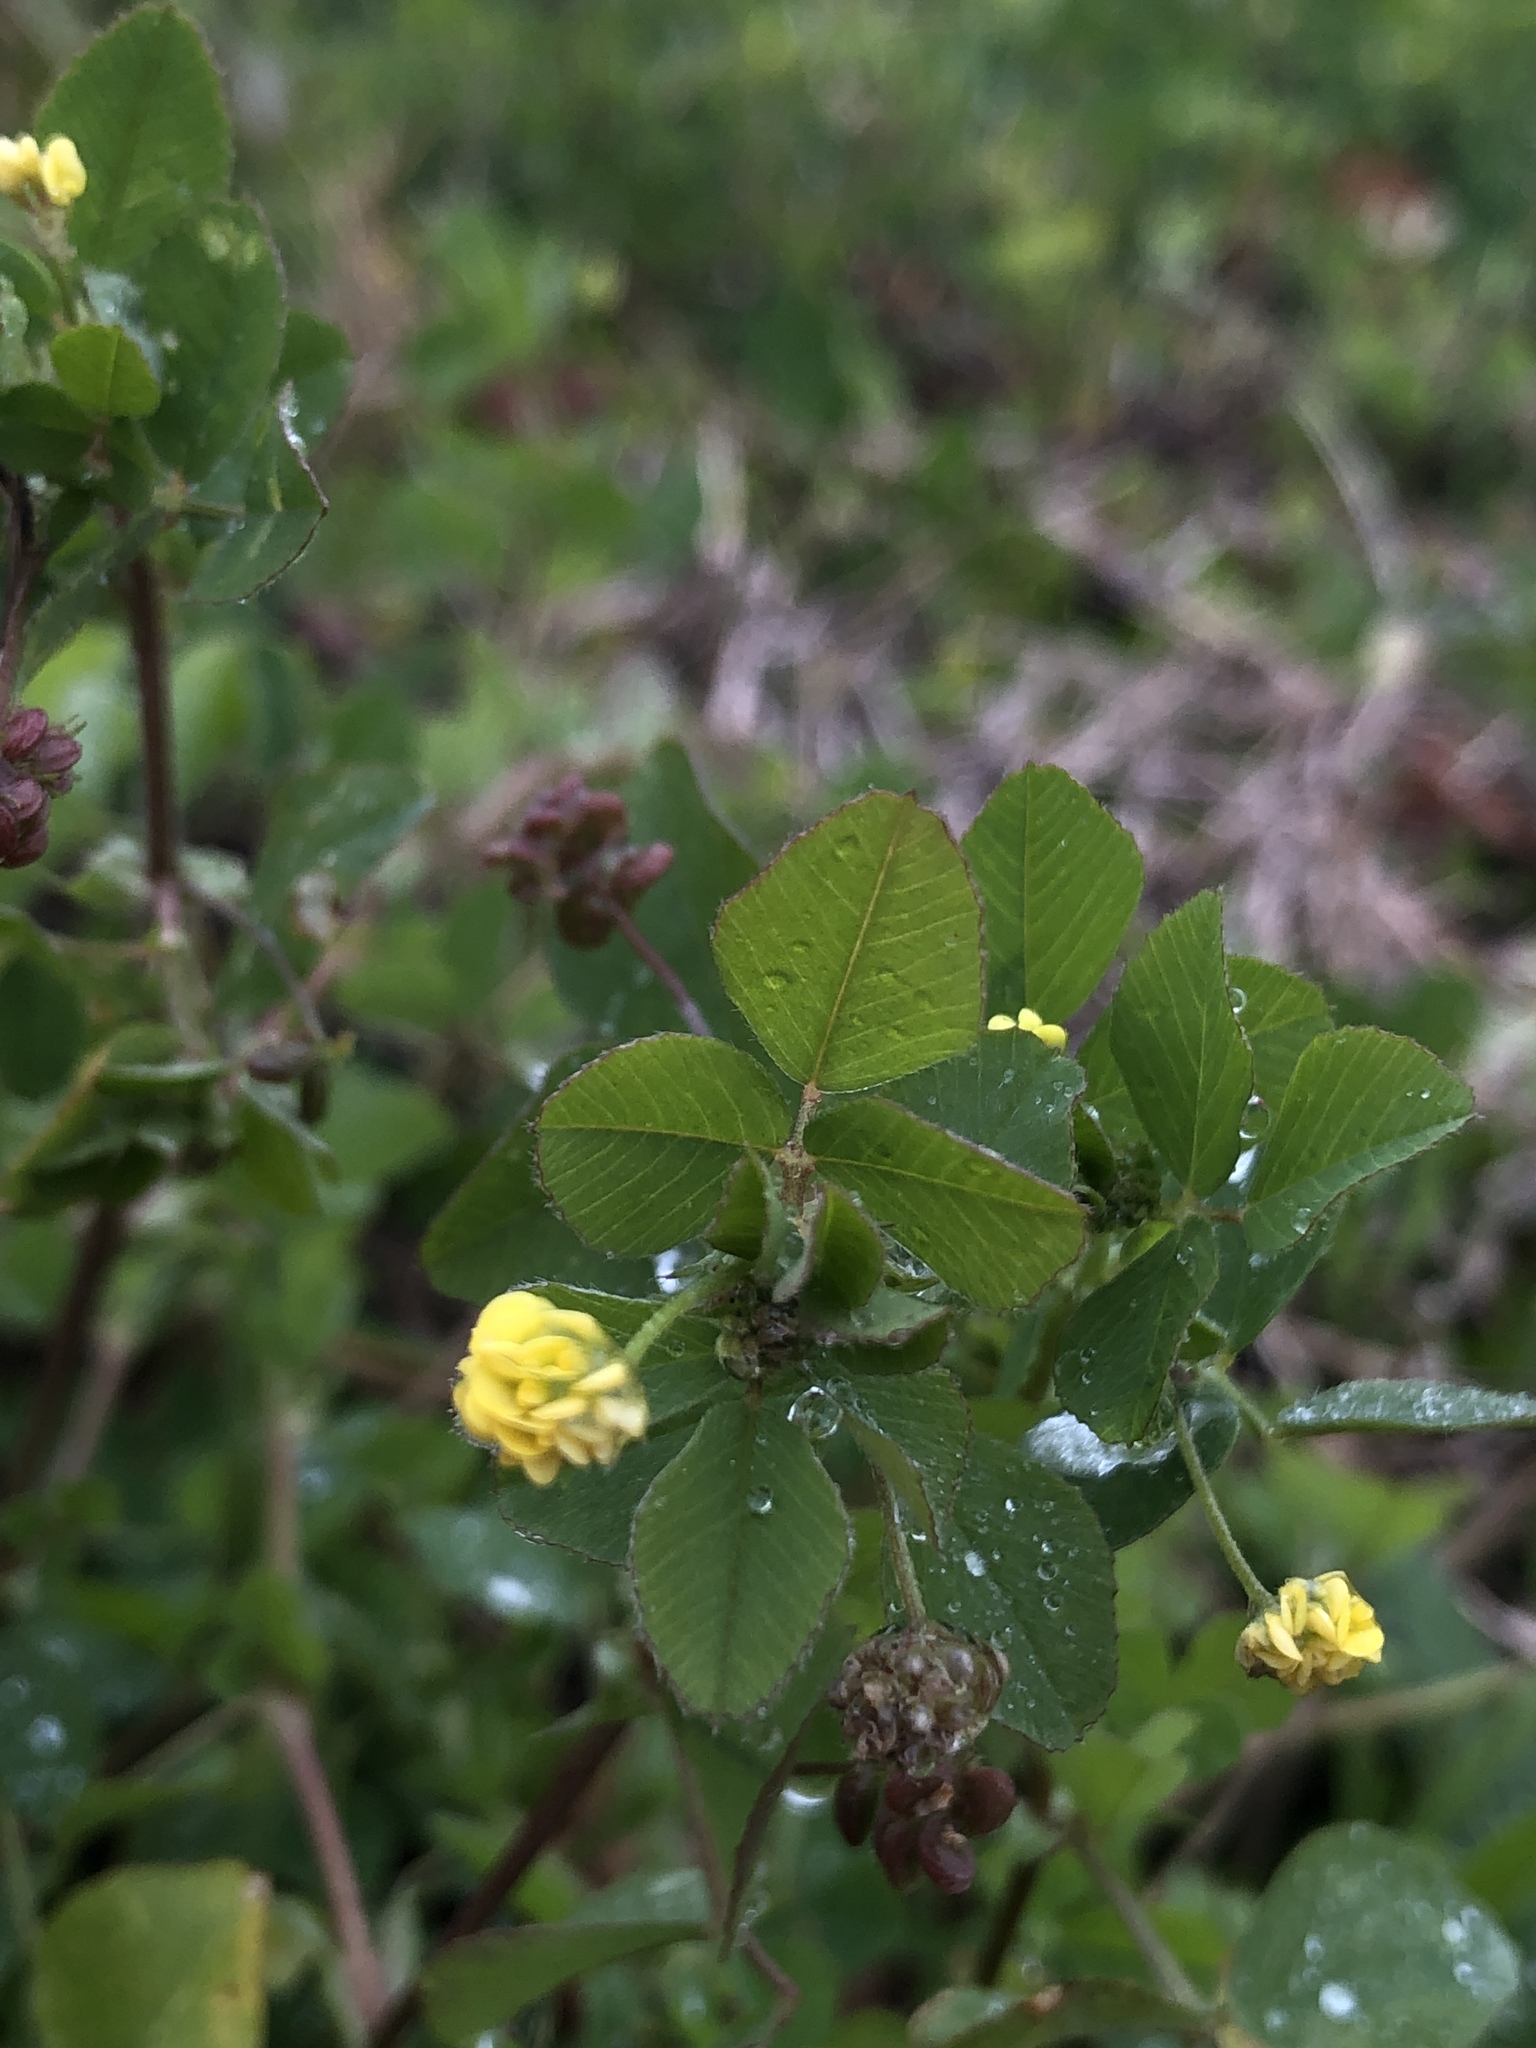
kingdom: Plantae
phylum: Tracheophyta
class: Magnoliopsida
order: Fabales
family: Fabaceae
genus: Medicago
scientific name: Medicago lupulina
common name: Black medick
